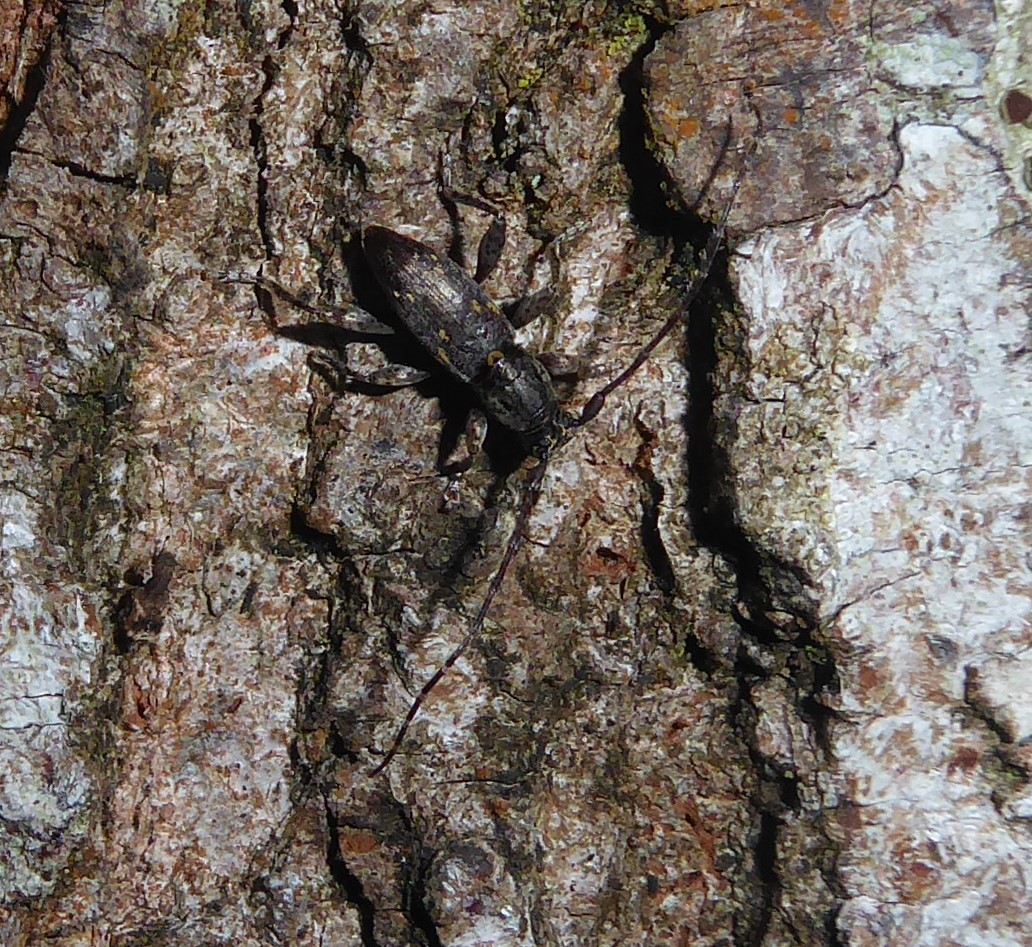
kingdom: Animalia
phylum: Arthropoda
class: Insecta
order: Coleoptera
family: Cerambycidae
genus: Xylotoles
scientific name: Xylotoles griseus
